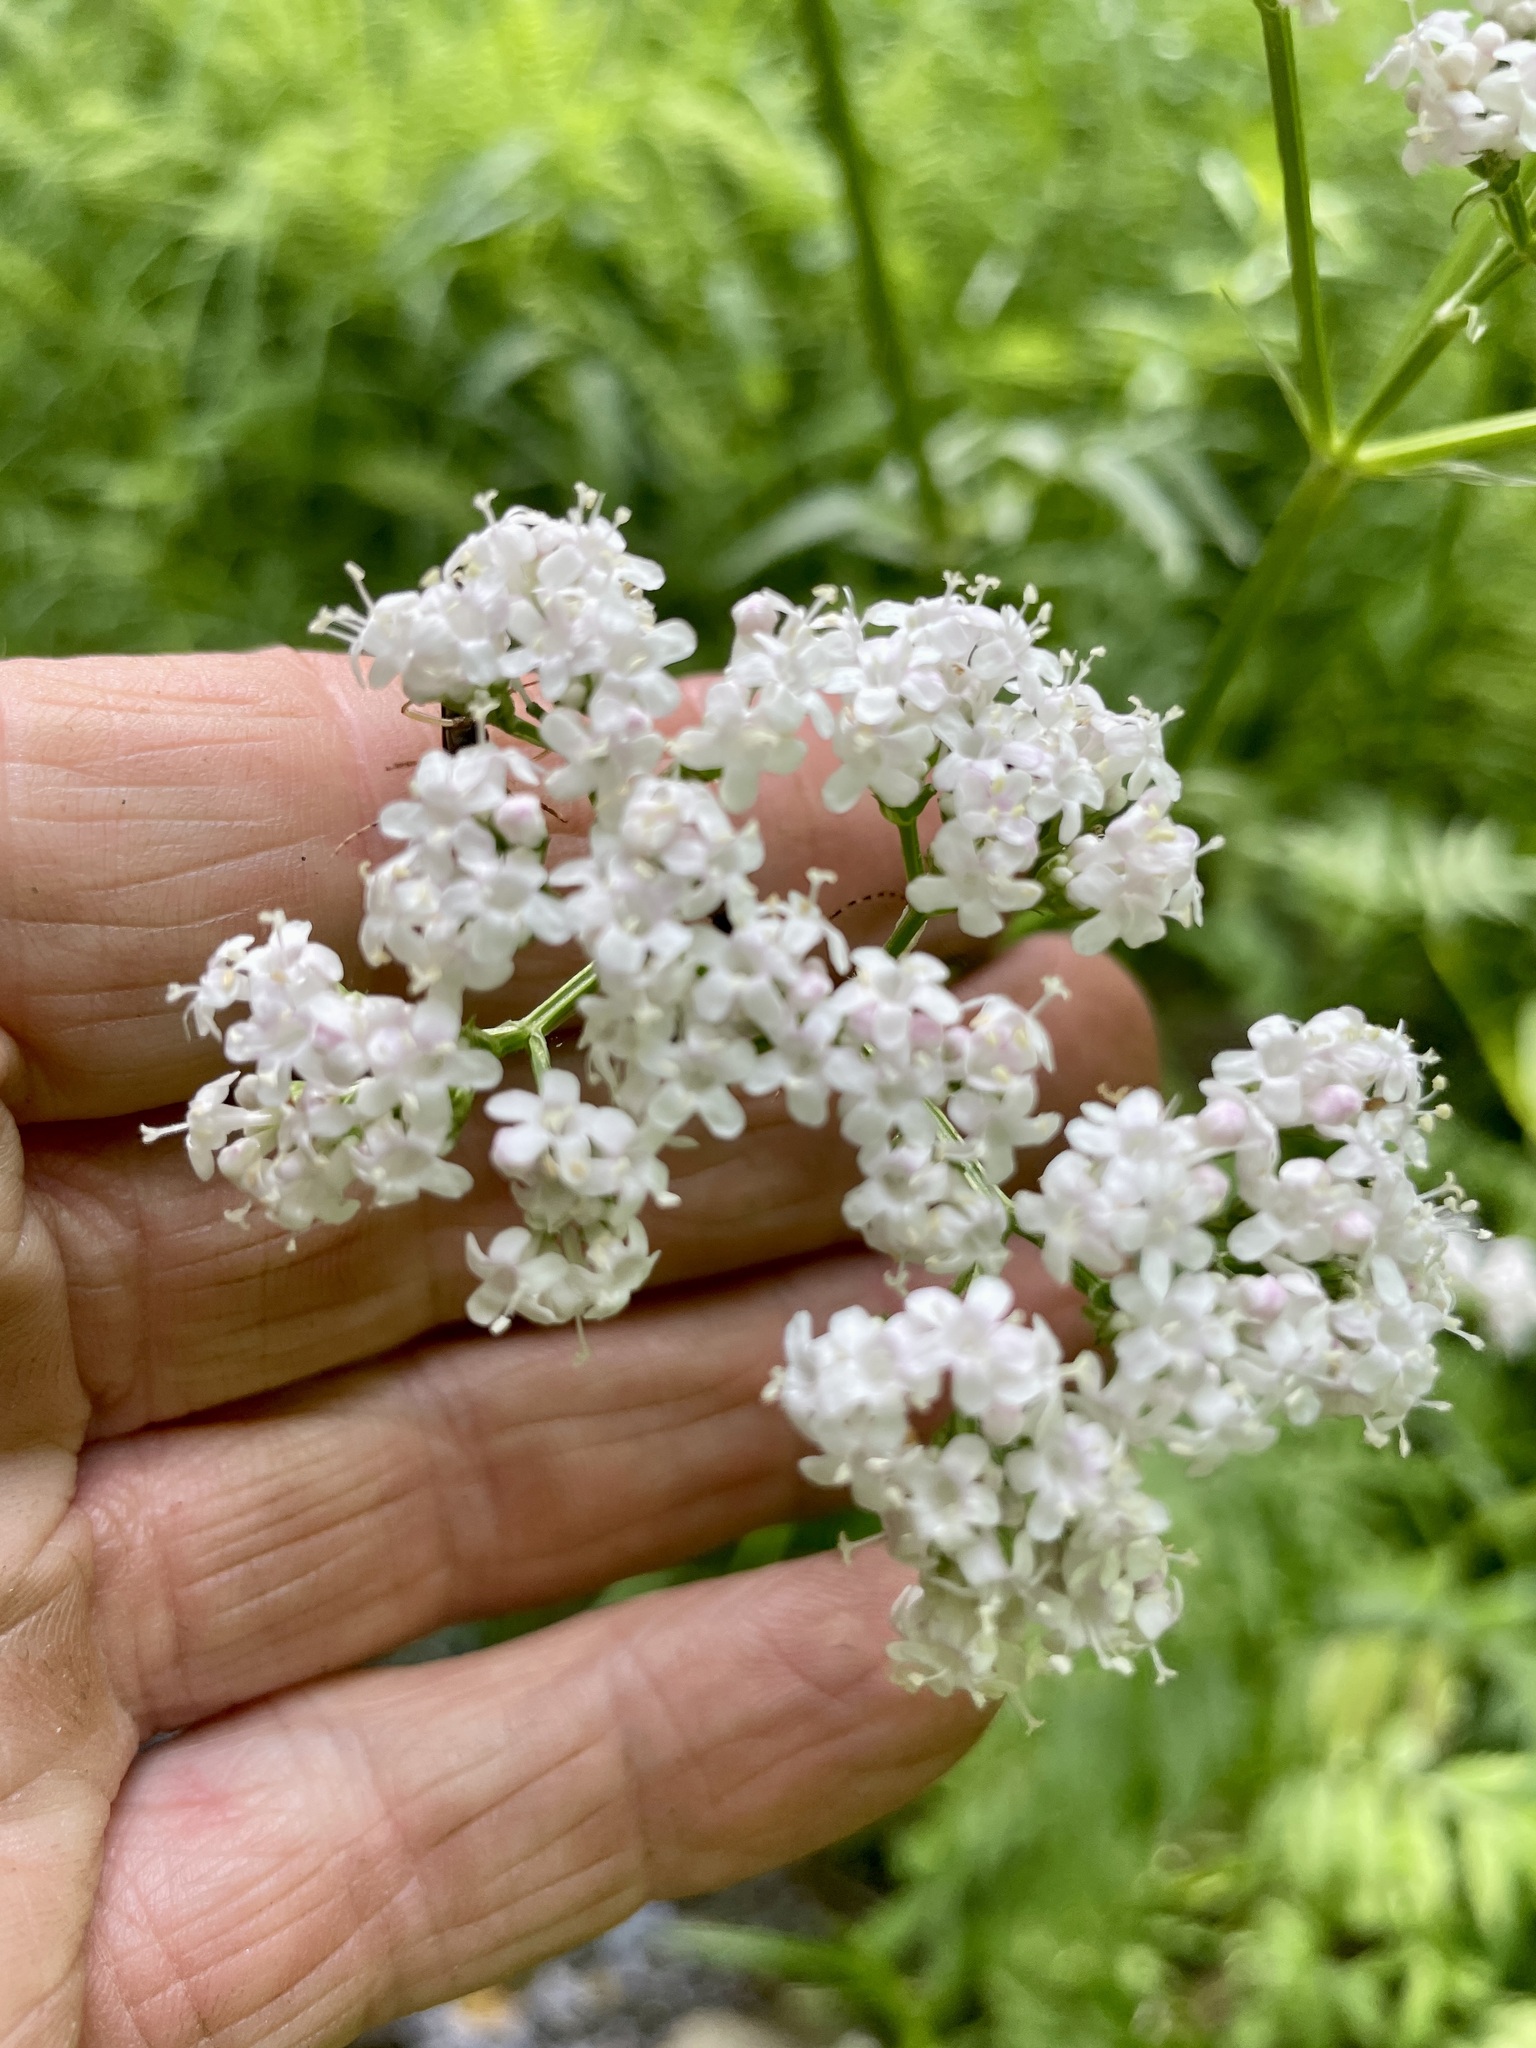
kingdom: Plantae
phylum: Tracheophyta
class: Magnoliopsida
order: Dipsacales
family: Caprifoliaceae
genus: Valeriana
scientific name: Valeriana officinalis
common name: Common valerian
